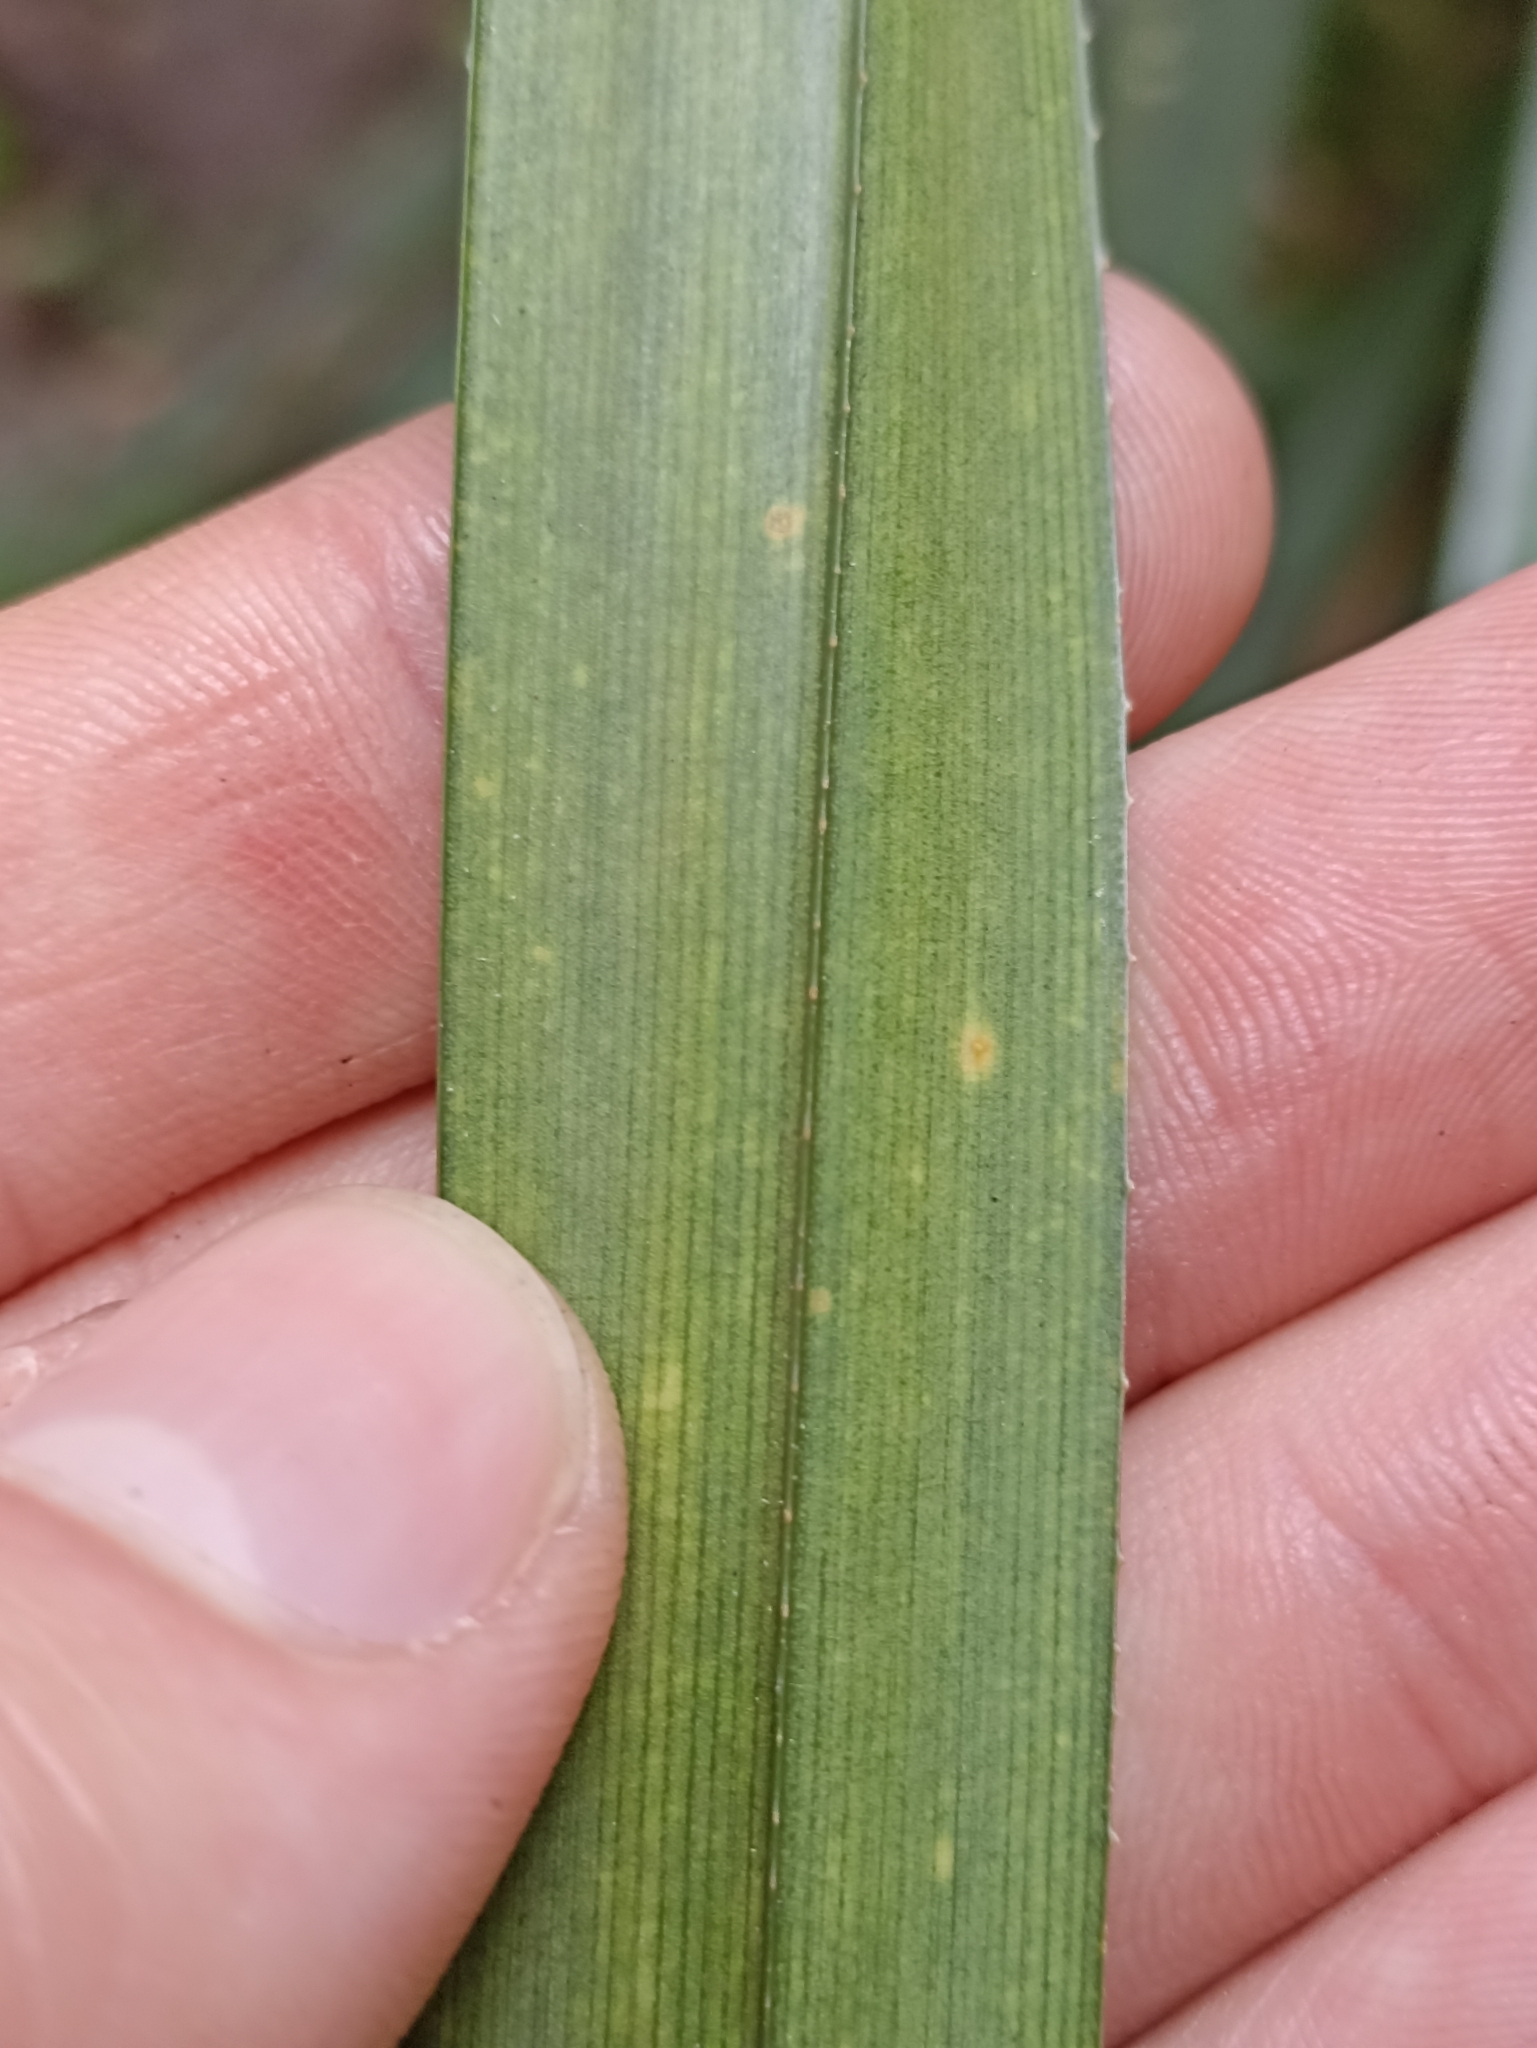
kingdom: Plantae
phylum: Tracheophyta
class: Liliopsida
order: Pandanales
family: Pandanaceae
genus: Freycinetia
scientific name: Freycinetia banksii
